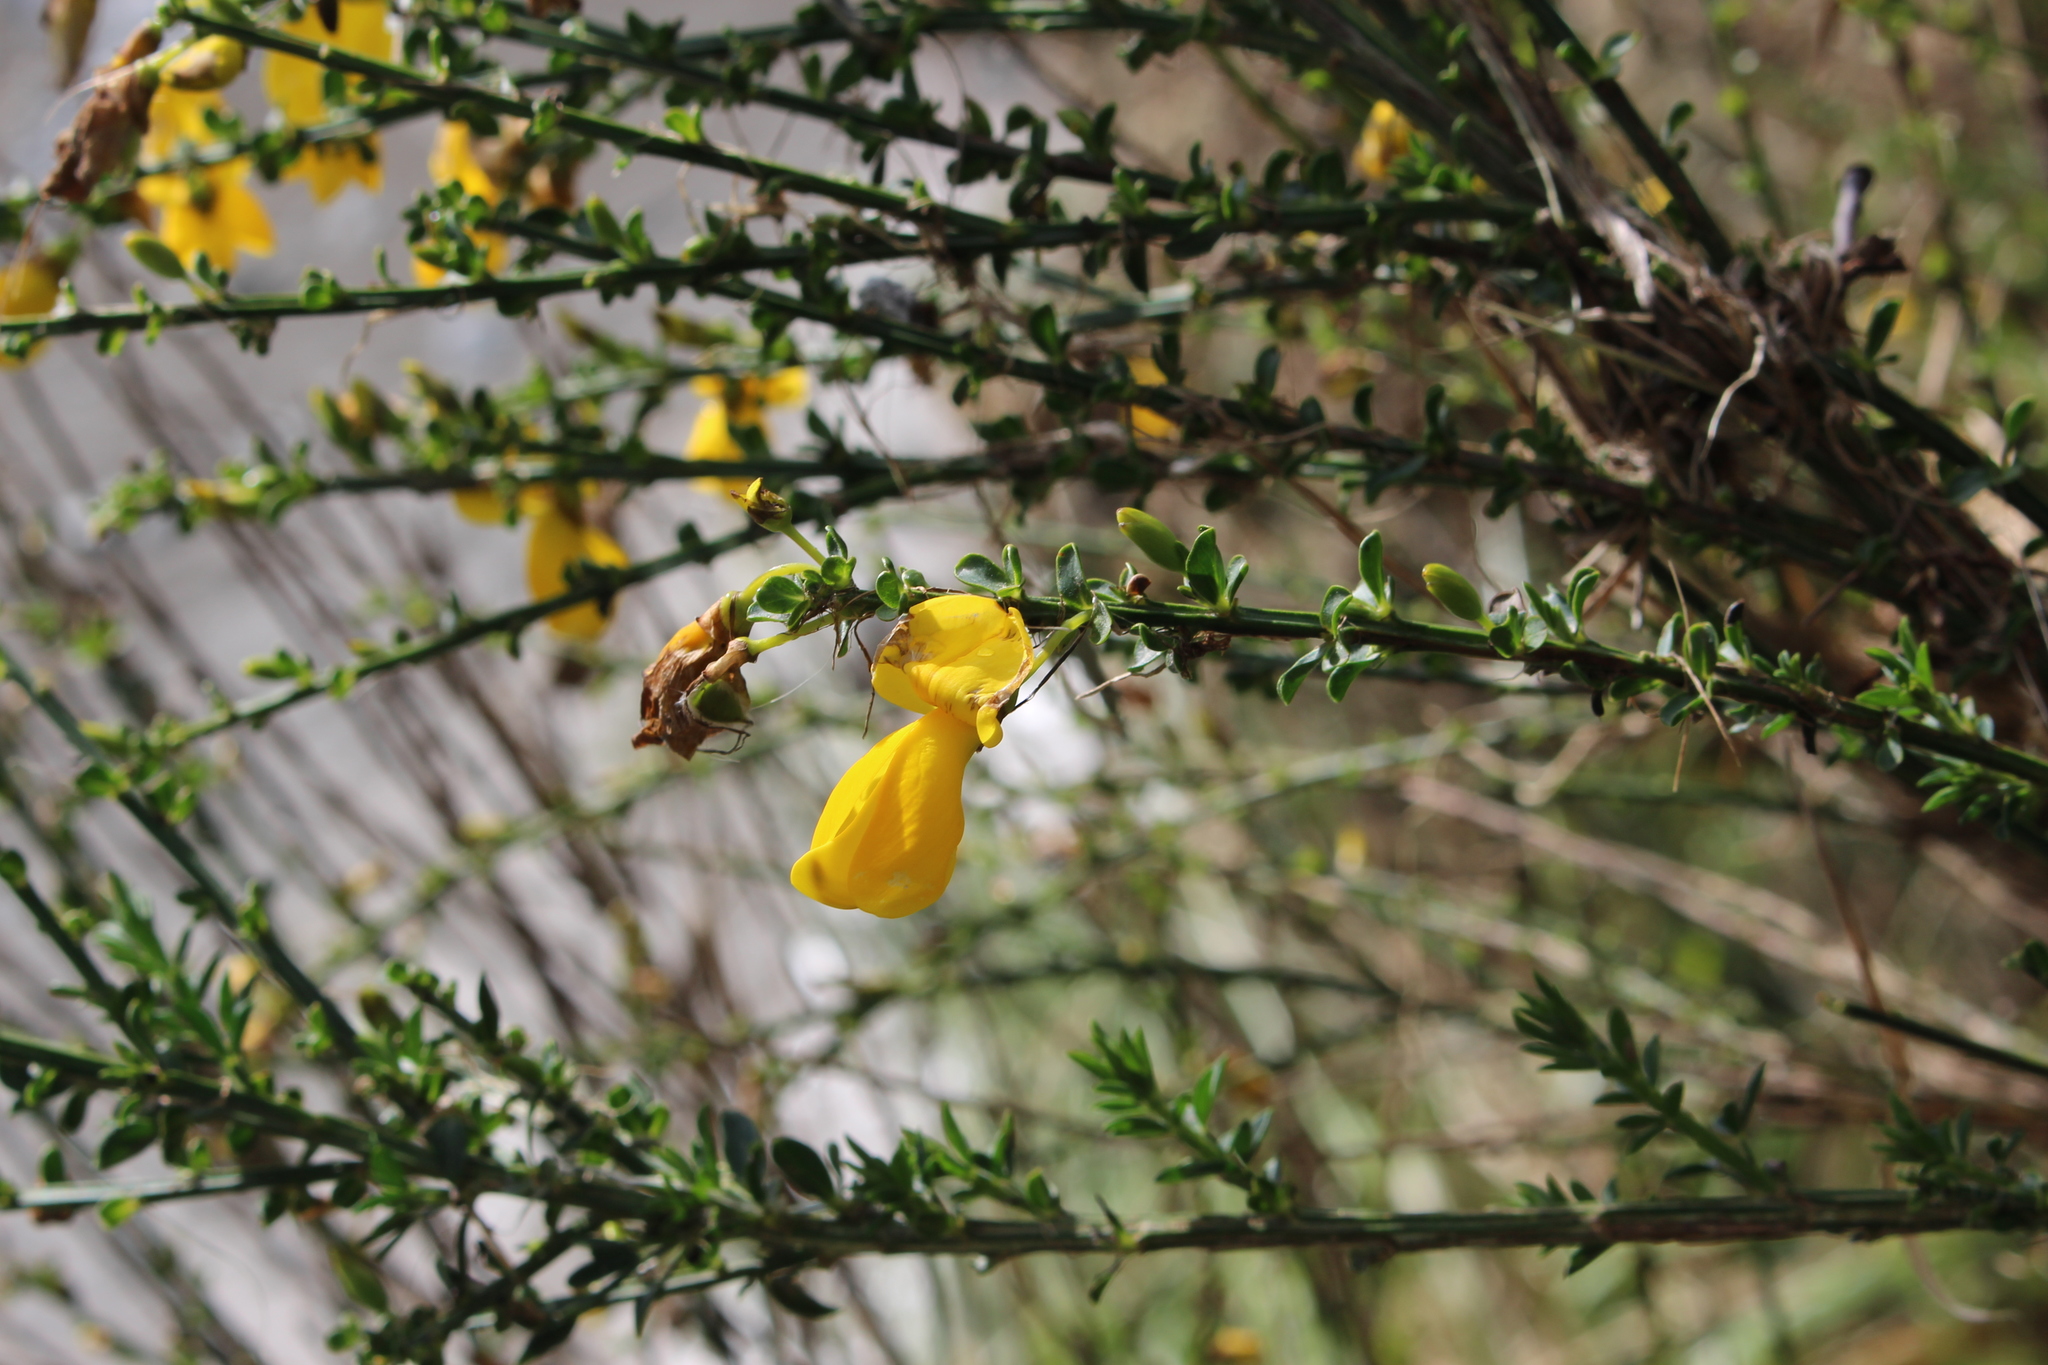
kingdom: Plantae
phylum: Tracheophyta
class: Magnoliopsida
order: Fabales
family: Fabaceae
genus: Cytisus
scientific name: Cytisus scoparius
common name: Scotch broom
